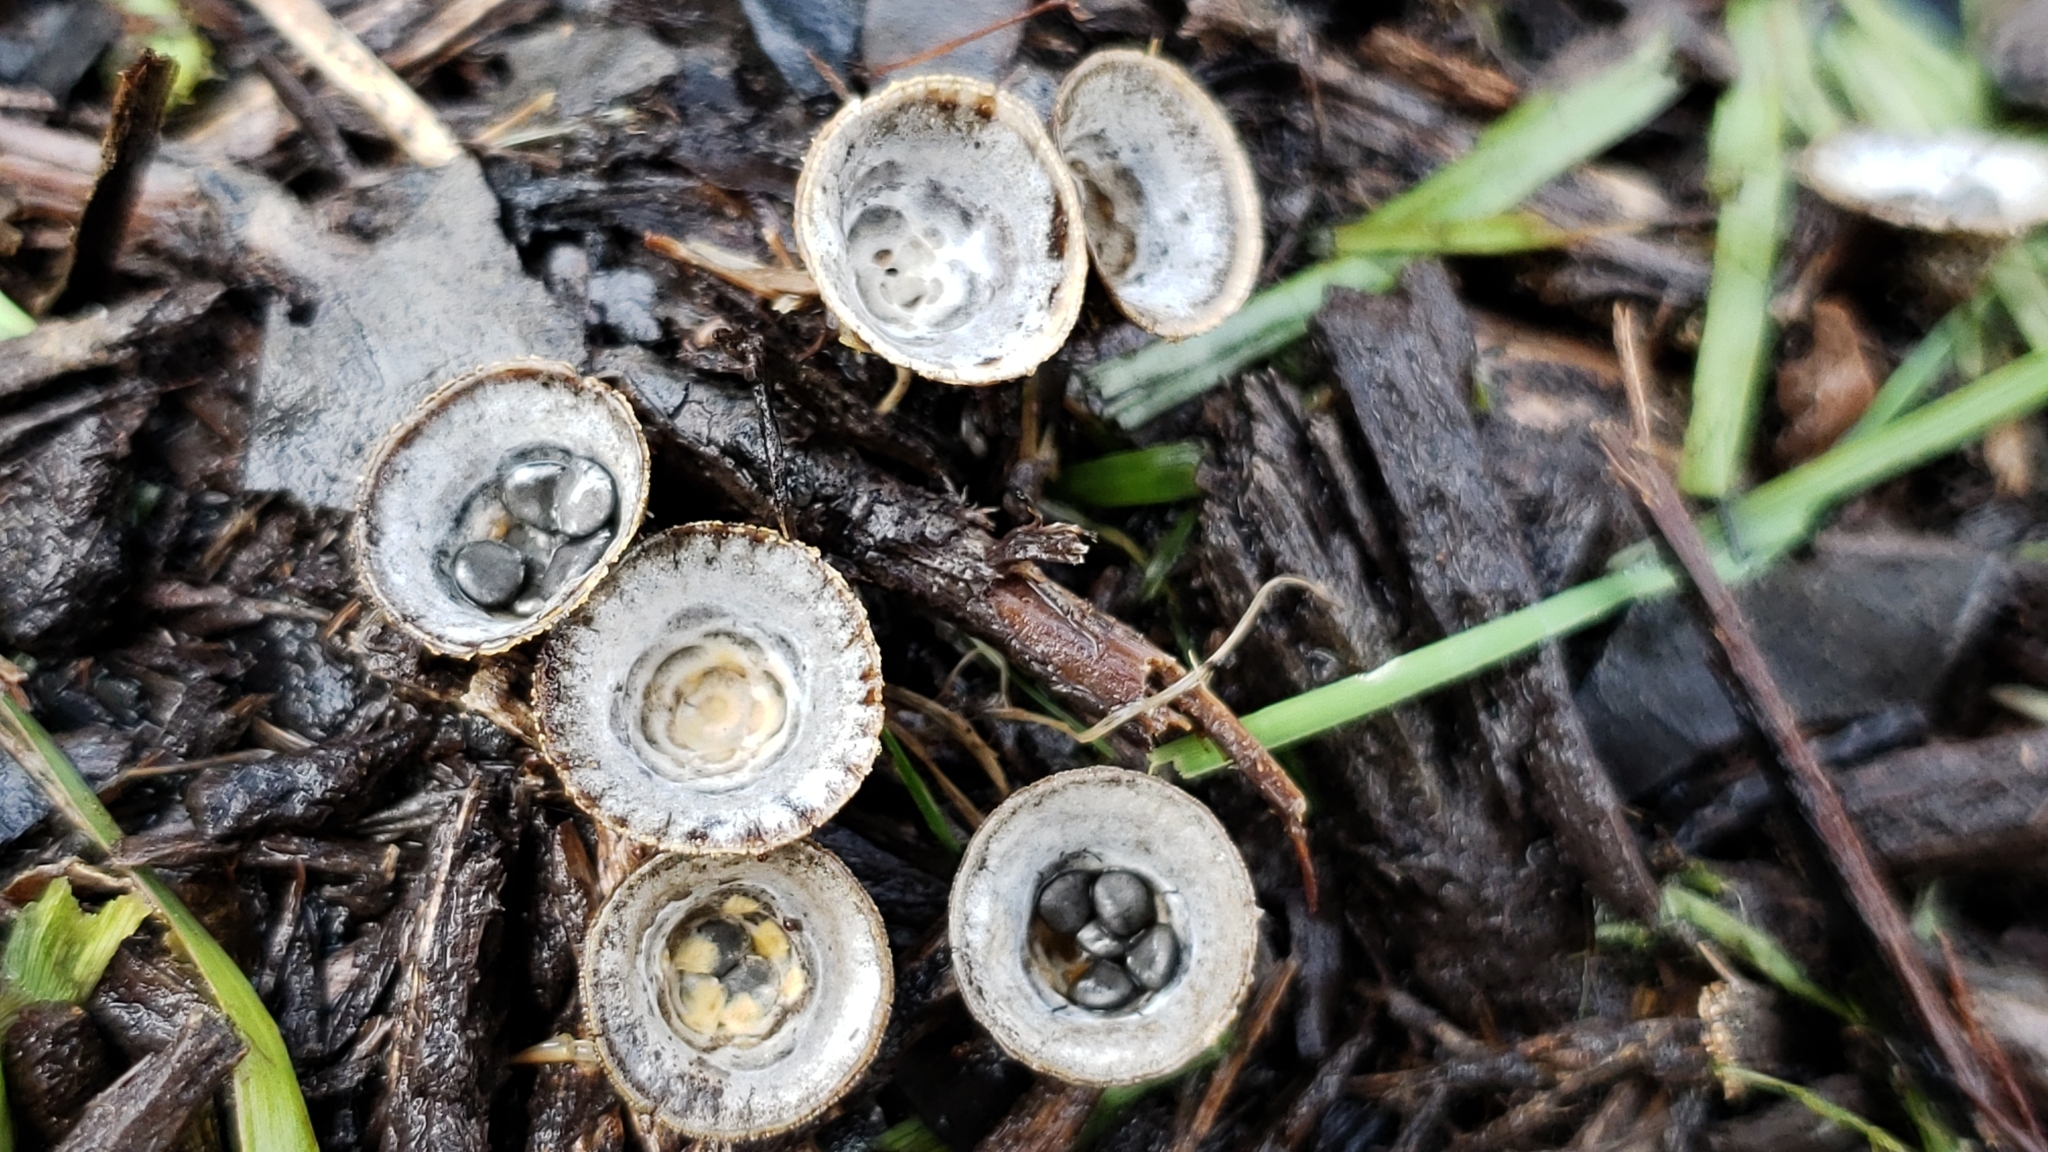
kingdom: Fungi
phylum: Basidiomycota
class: Agaricomycetes
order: Agaricales
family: Agaricaceae
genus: Cyathus
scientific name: Cyathus stercoreus
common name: Dung bird's nest
